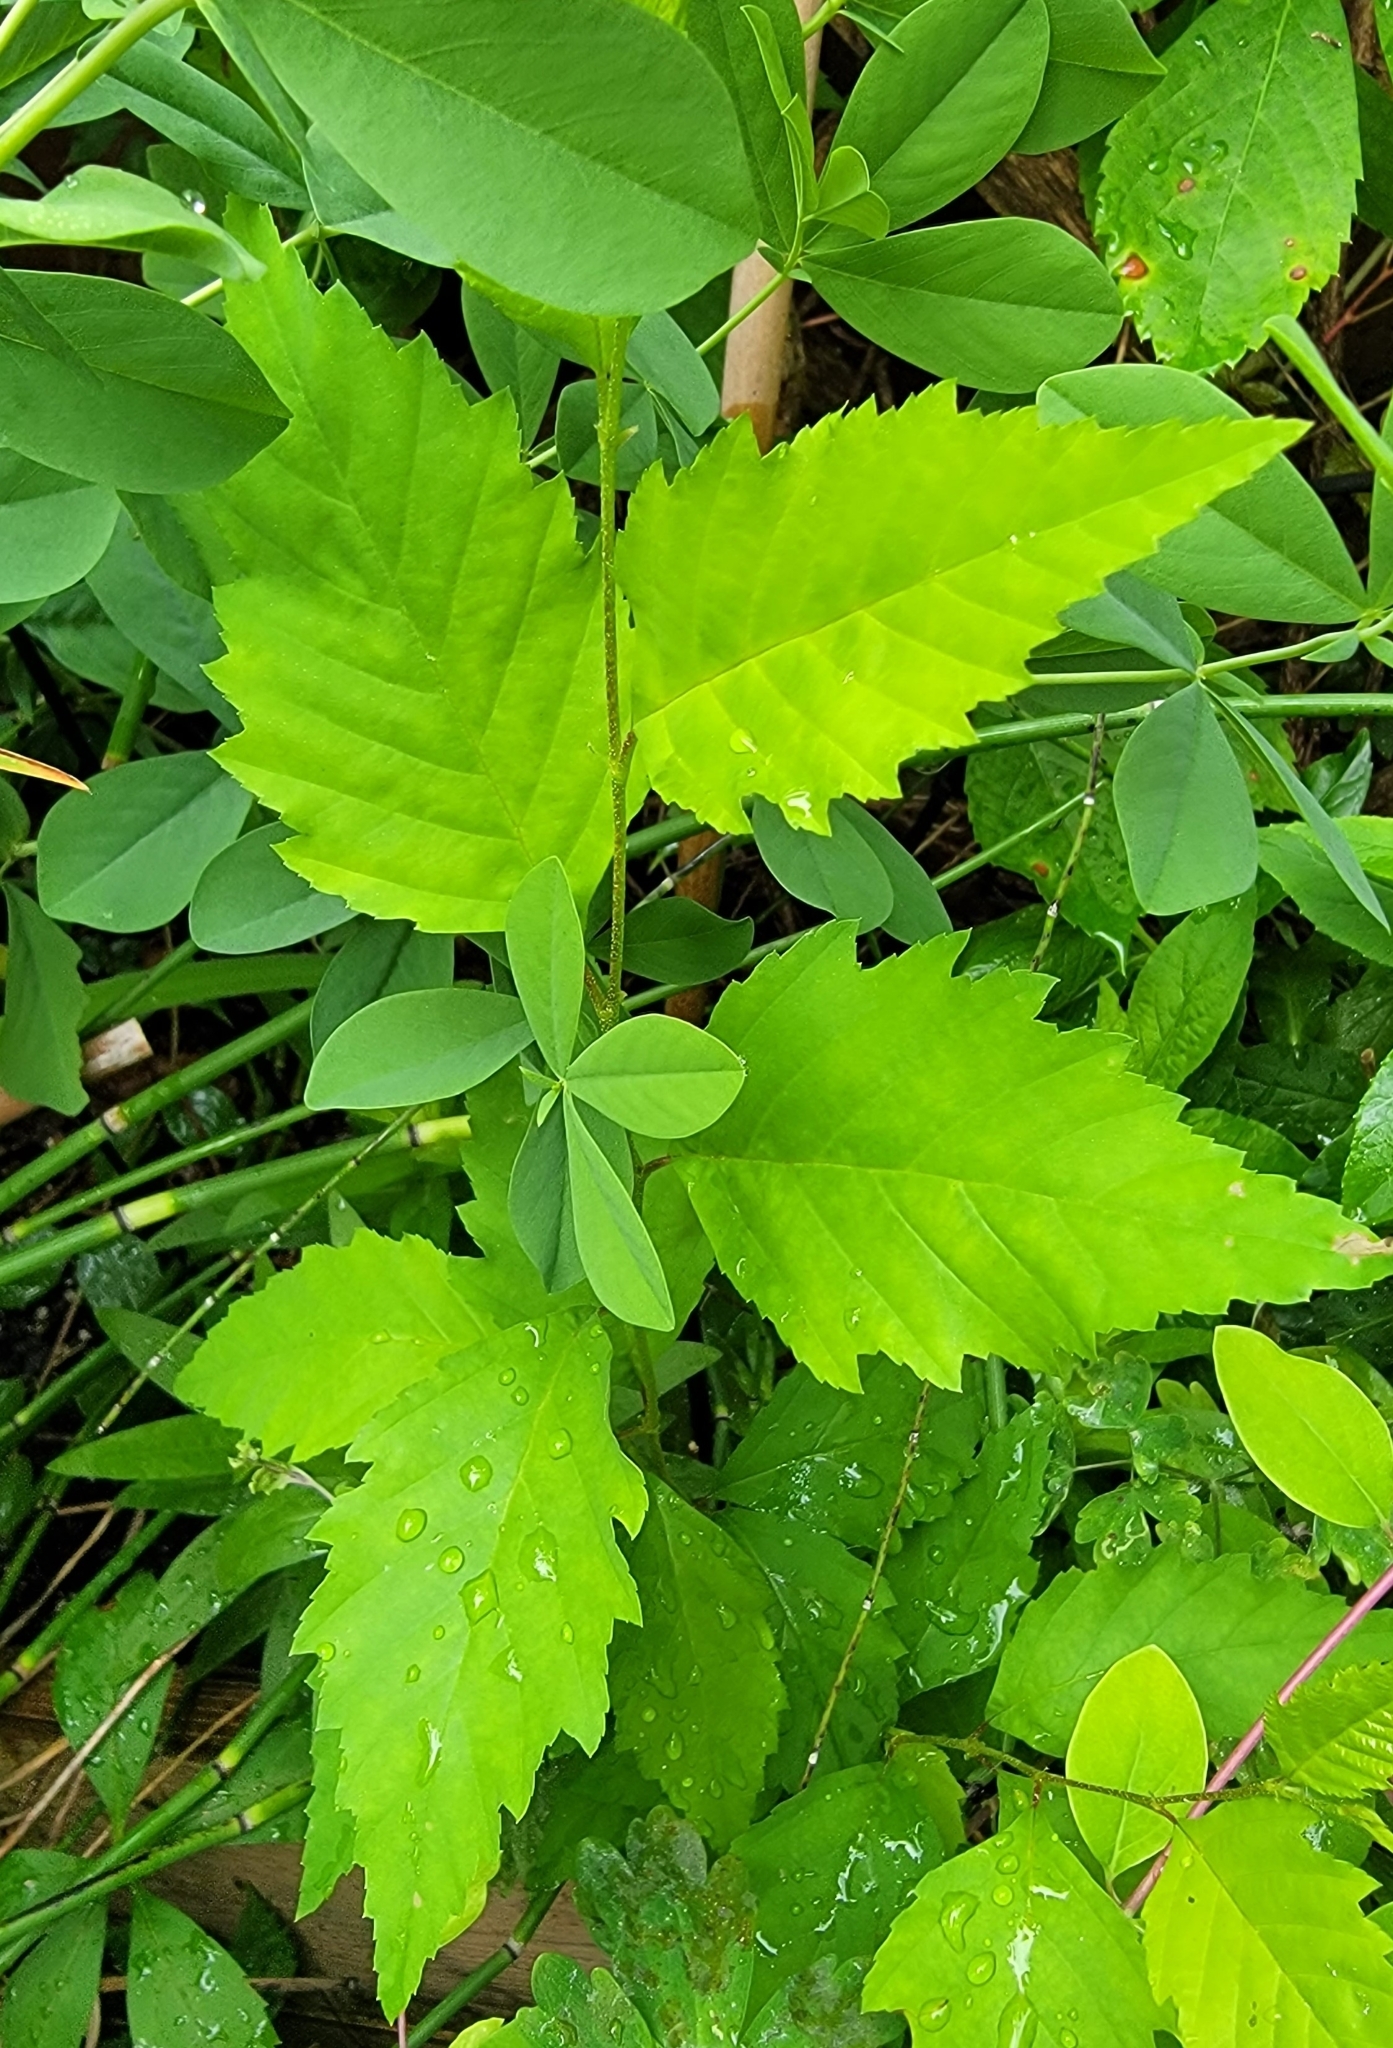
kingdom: Plantae
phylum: Tracheophyta
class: Magnoliopsida
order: Fagales
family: Betulaceae
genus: Betula
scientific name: Betula nigra
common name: Black birch
